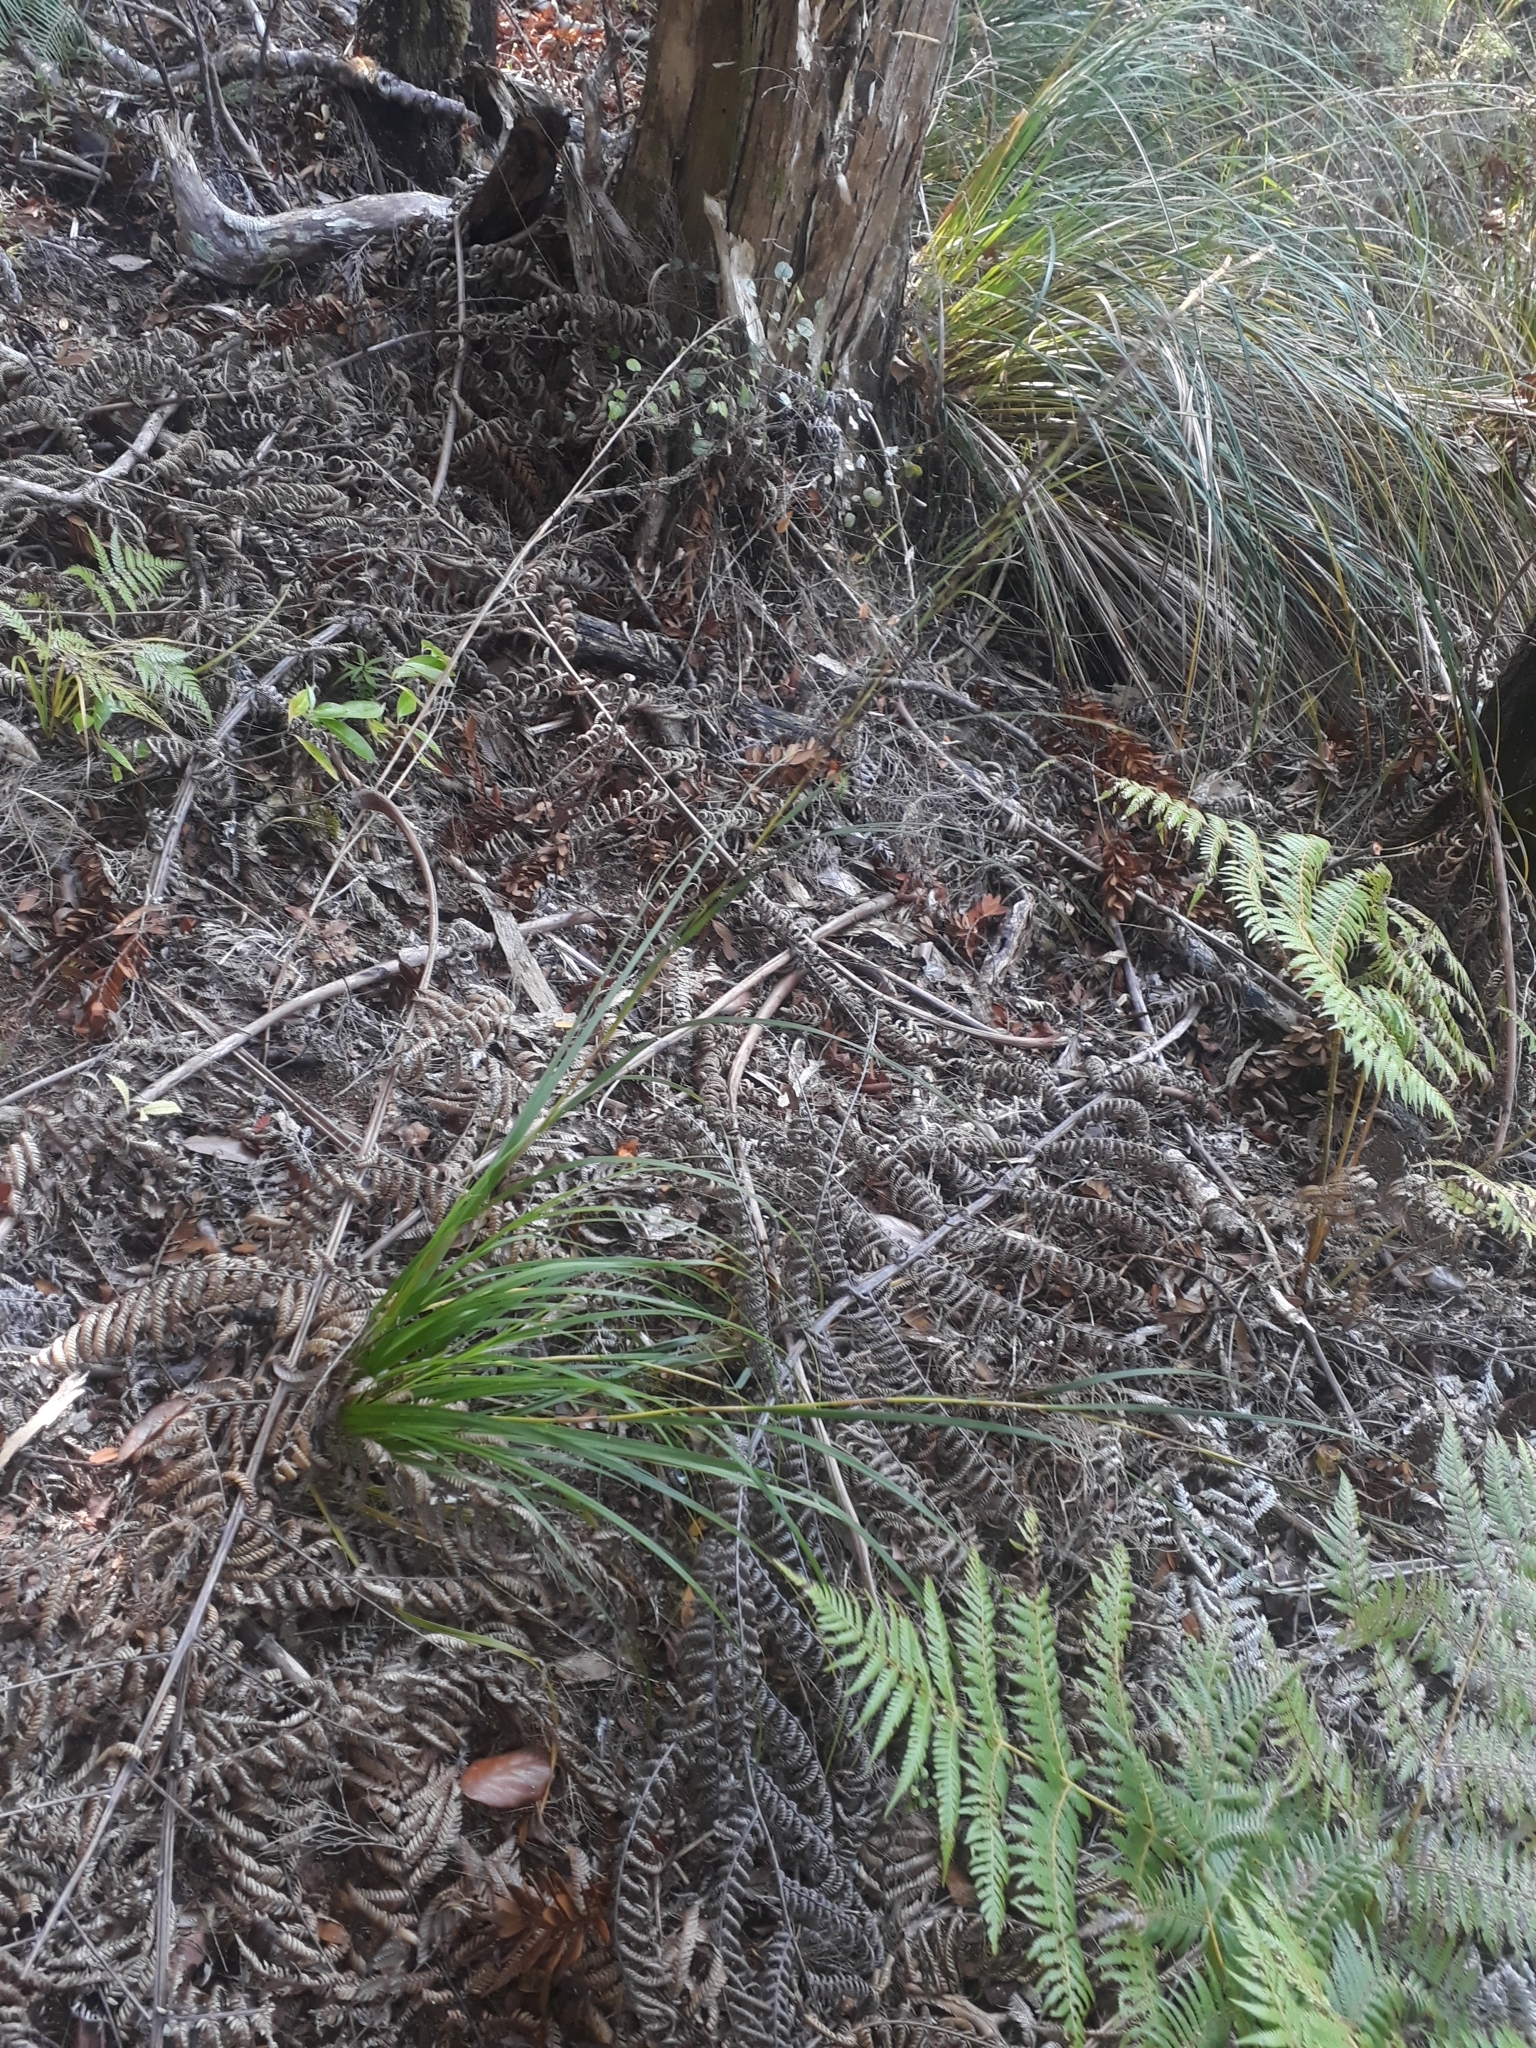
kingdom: Plantae
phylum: Tracheophyta
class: Liliopsida
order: Poales
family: Cyperaceae
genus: Gahnia
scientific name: Gahnia pauciflora
